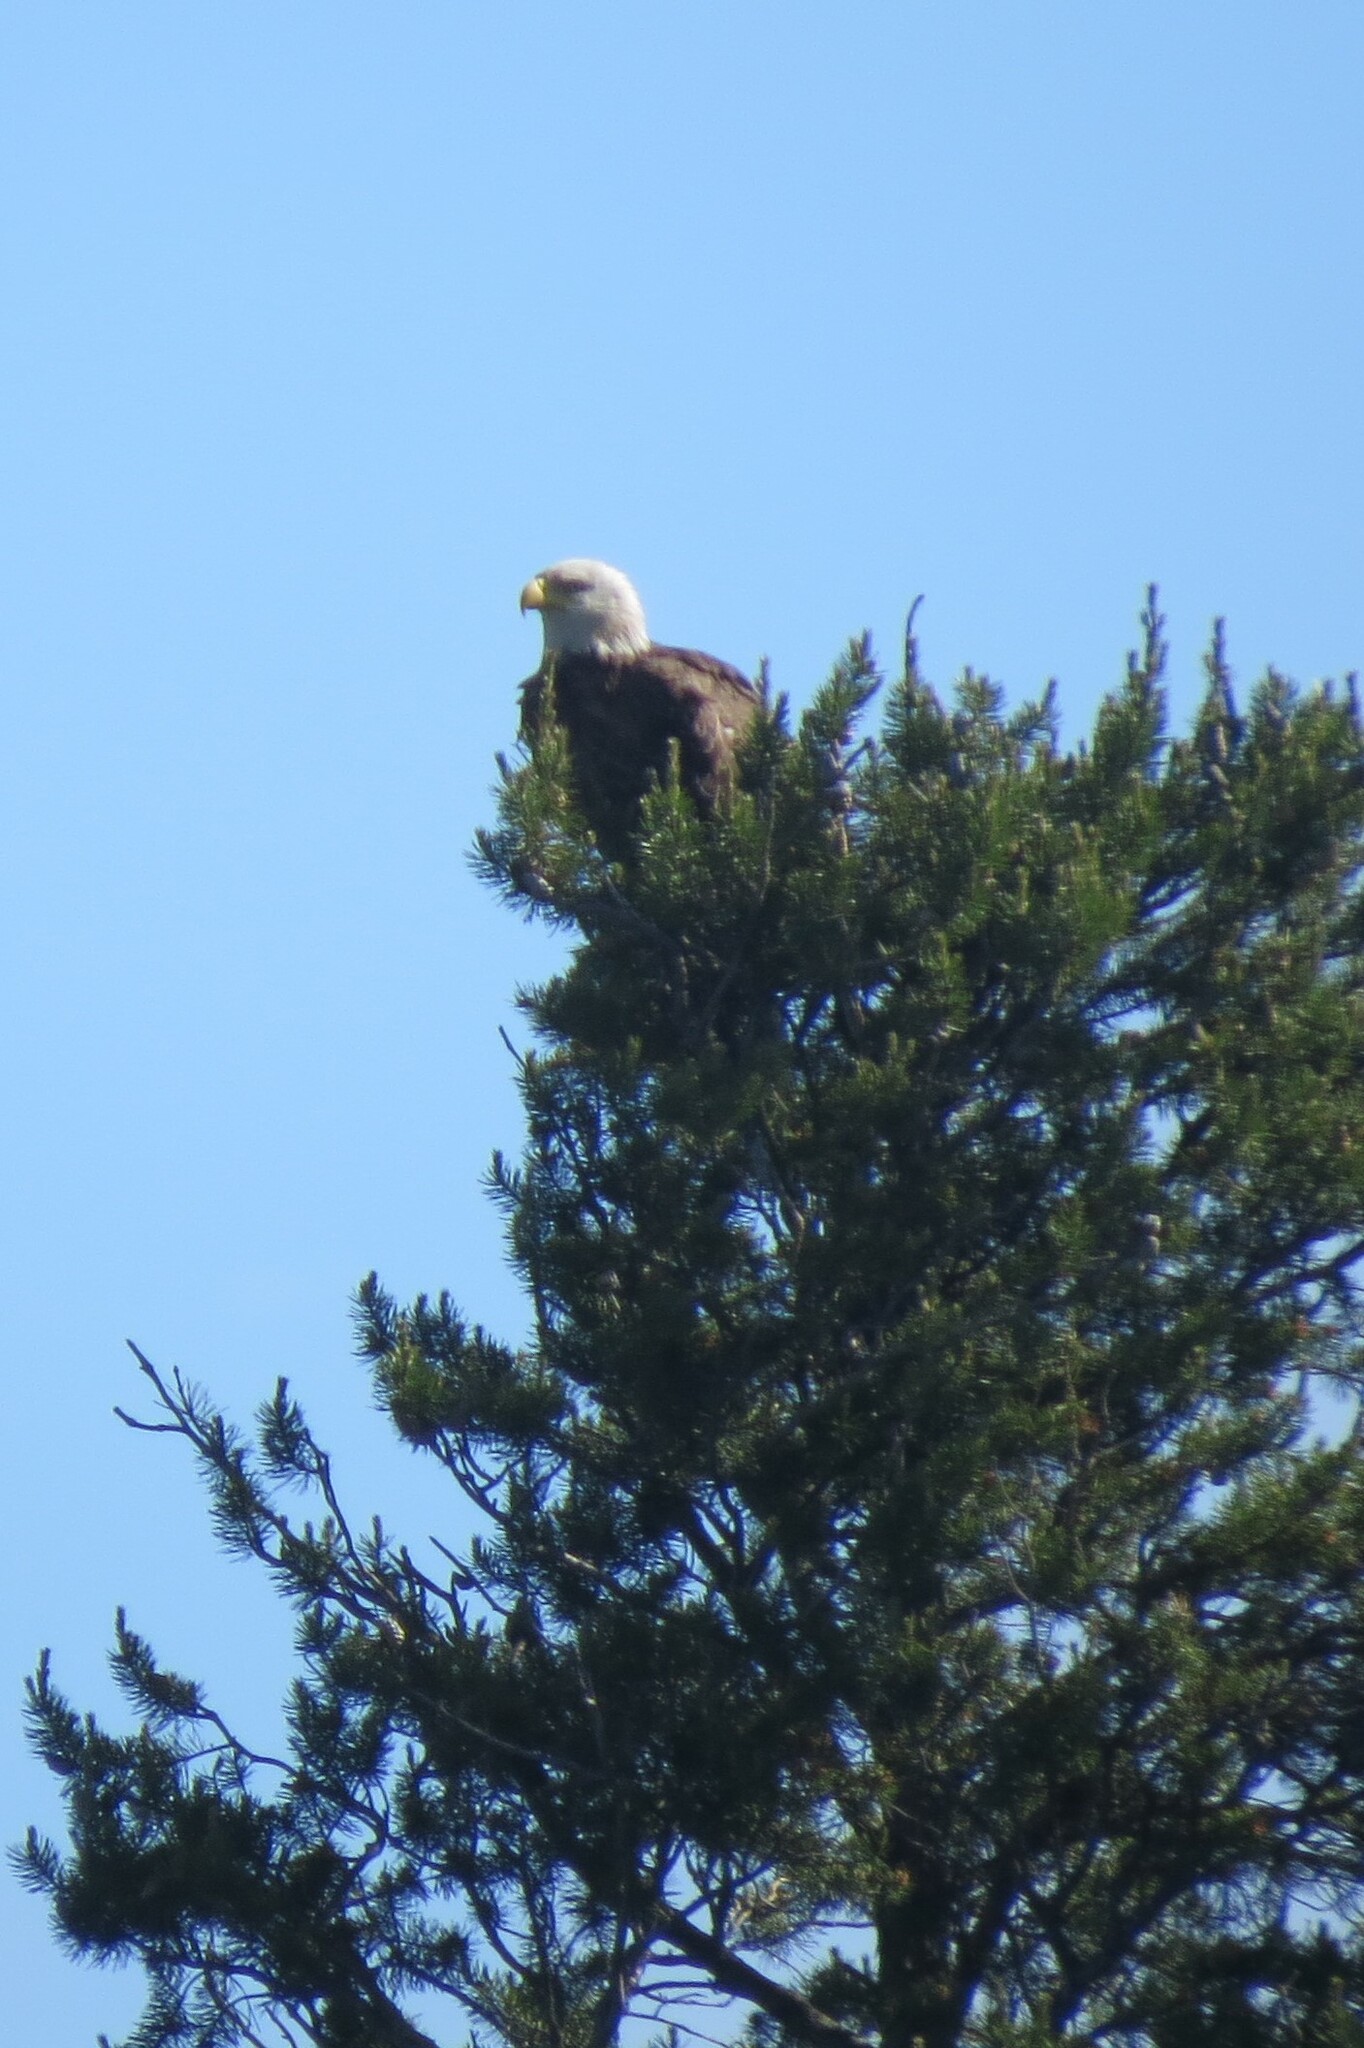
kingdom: Animalia
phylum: Chordata
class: Aves
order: Accipitriformes
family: Accipitridae
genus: Haliaeetus
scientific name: Haliaeetus leucocephalus
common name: Bald eagle
